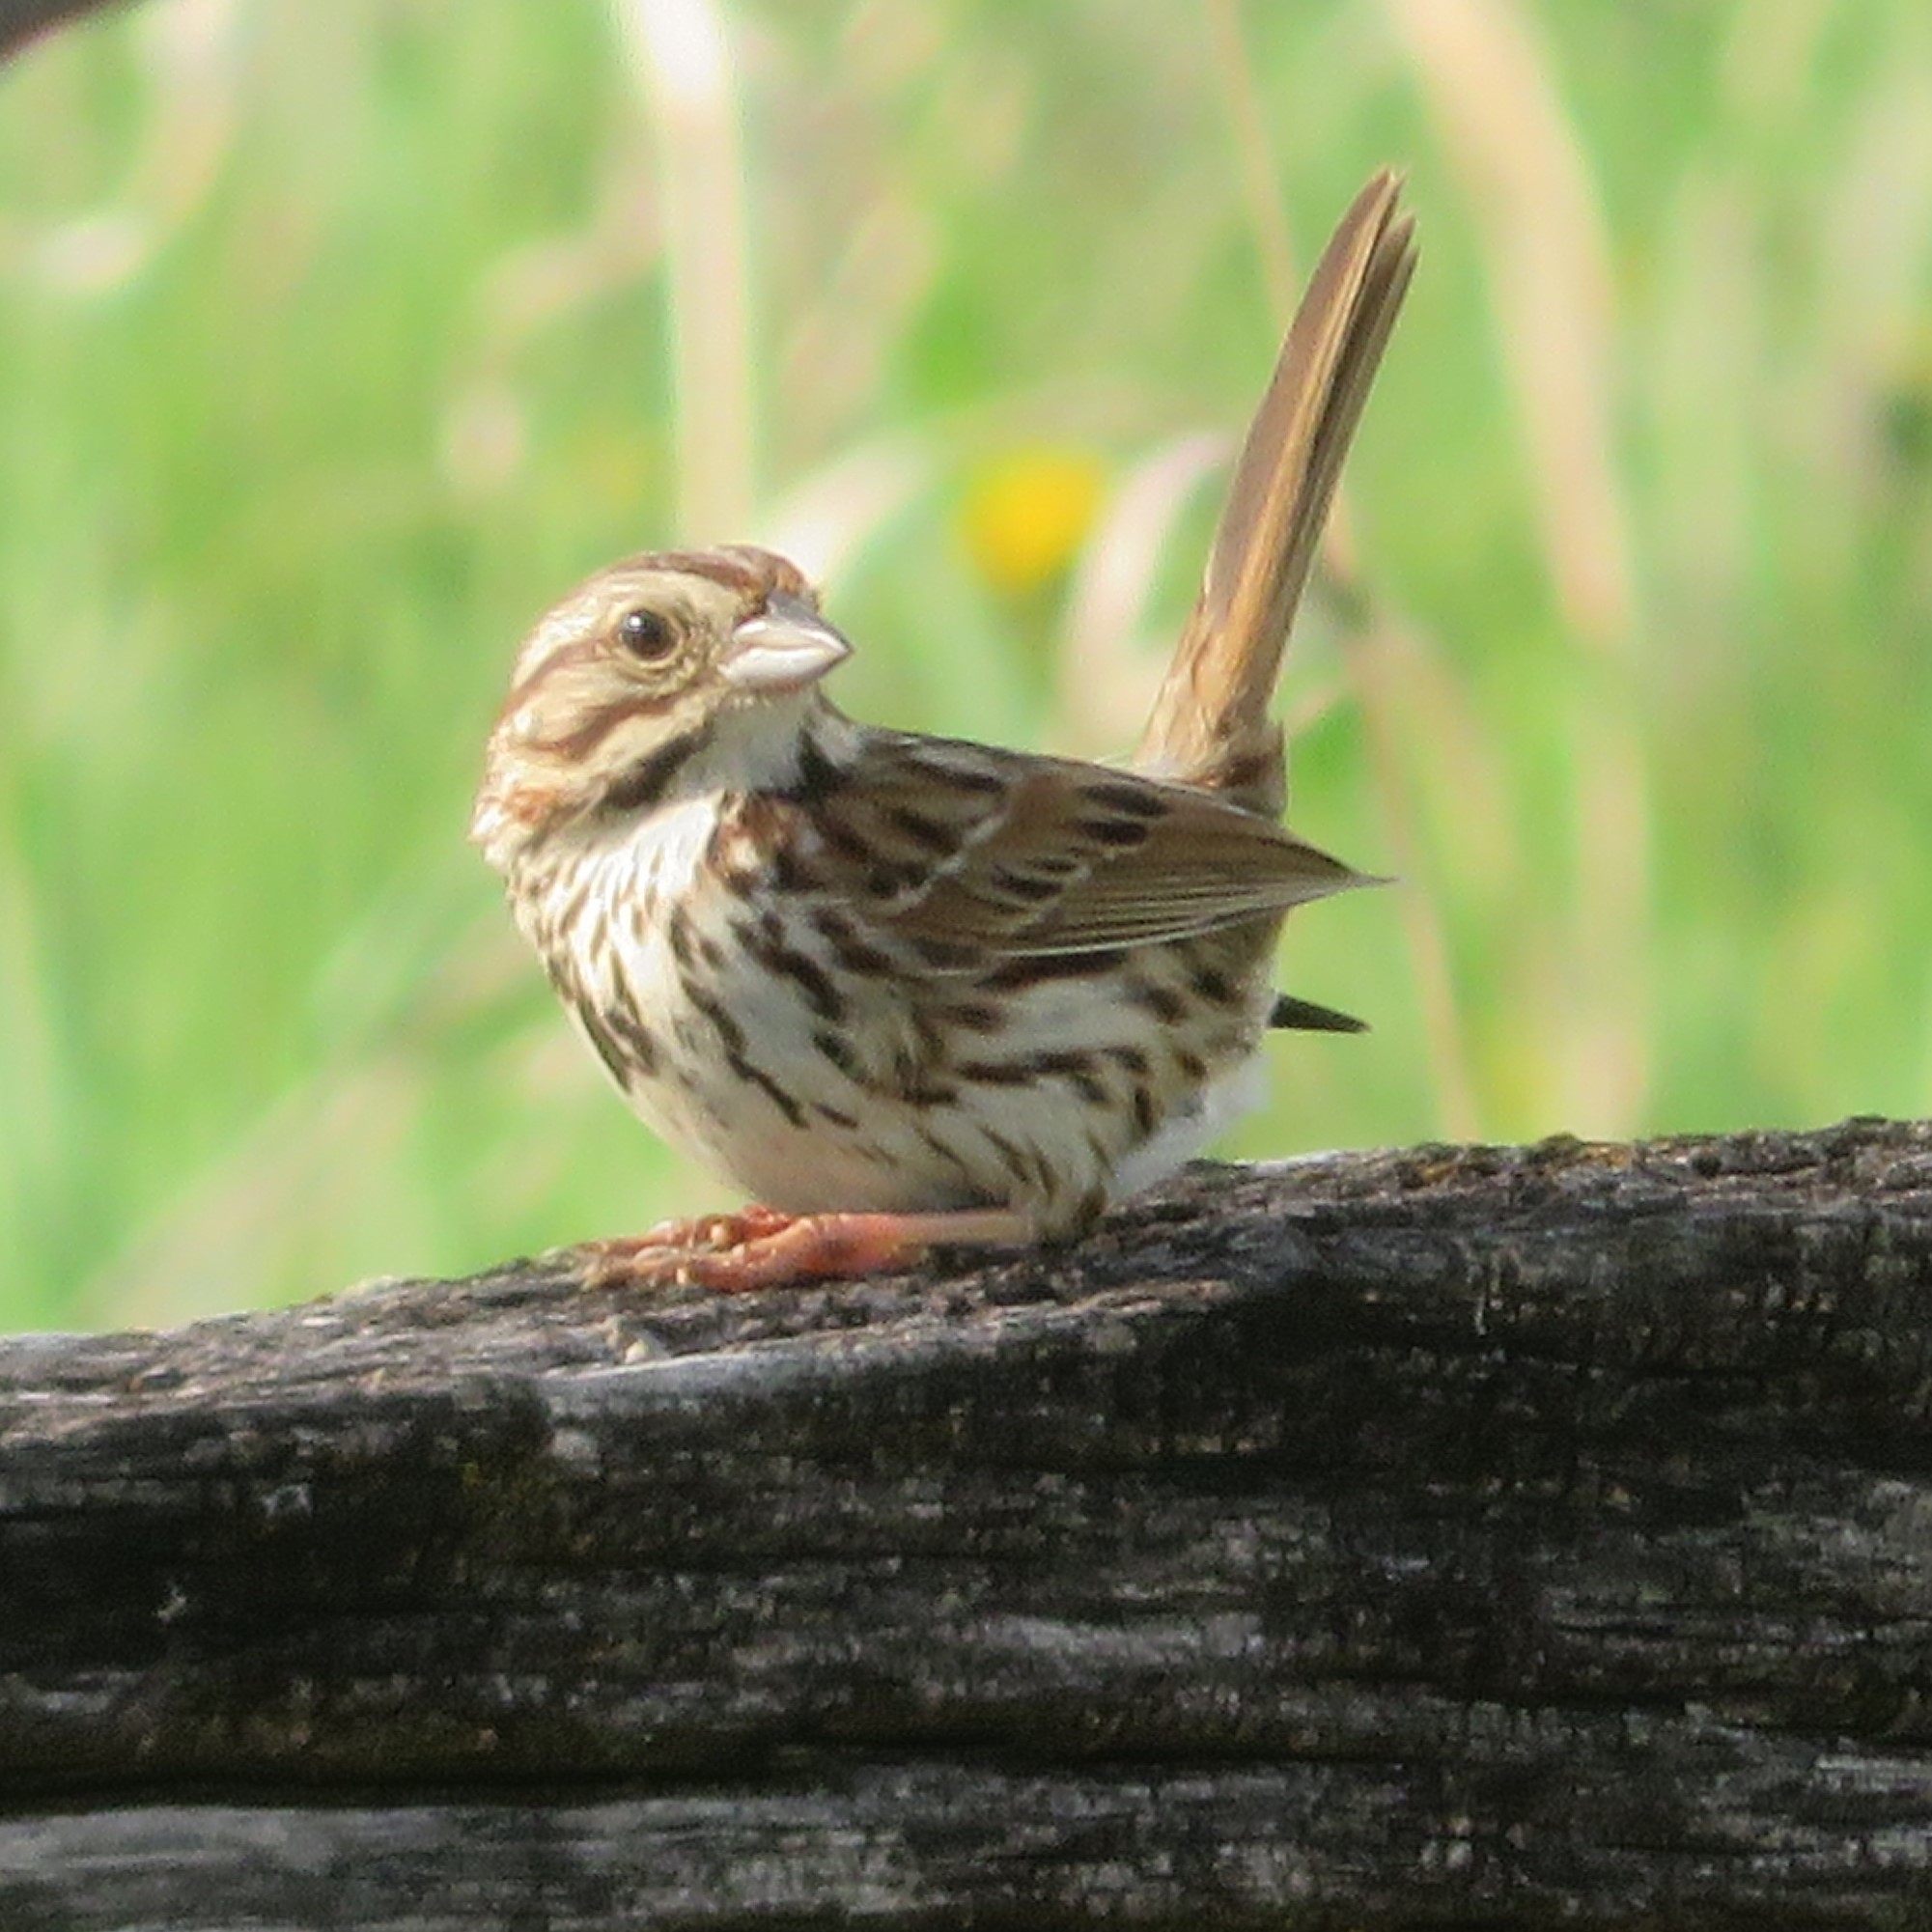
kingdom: Animalia
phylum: Chordata
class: Aves
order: Passeriformes
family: Passerellidae
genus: Melospiza
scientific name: Melospiza melodia
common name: Song sparrow
